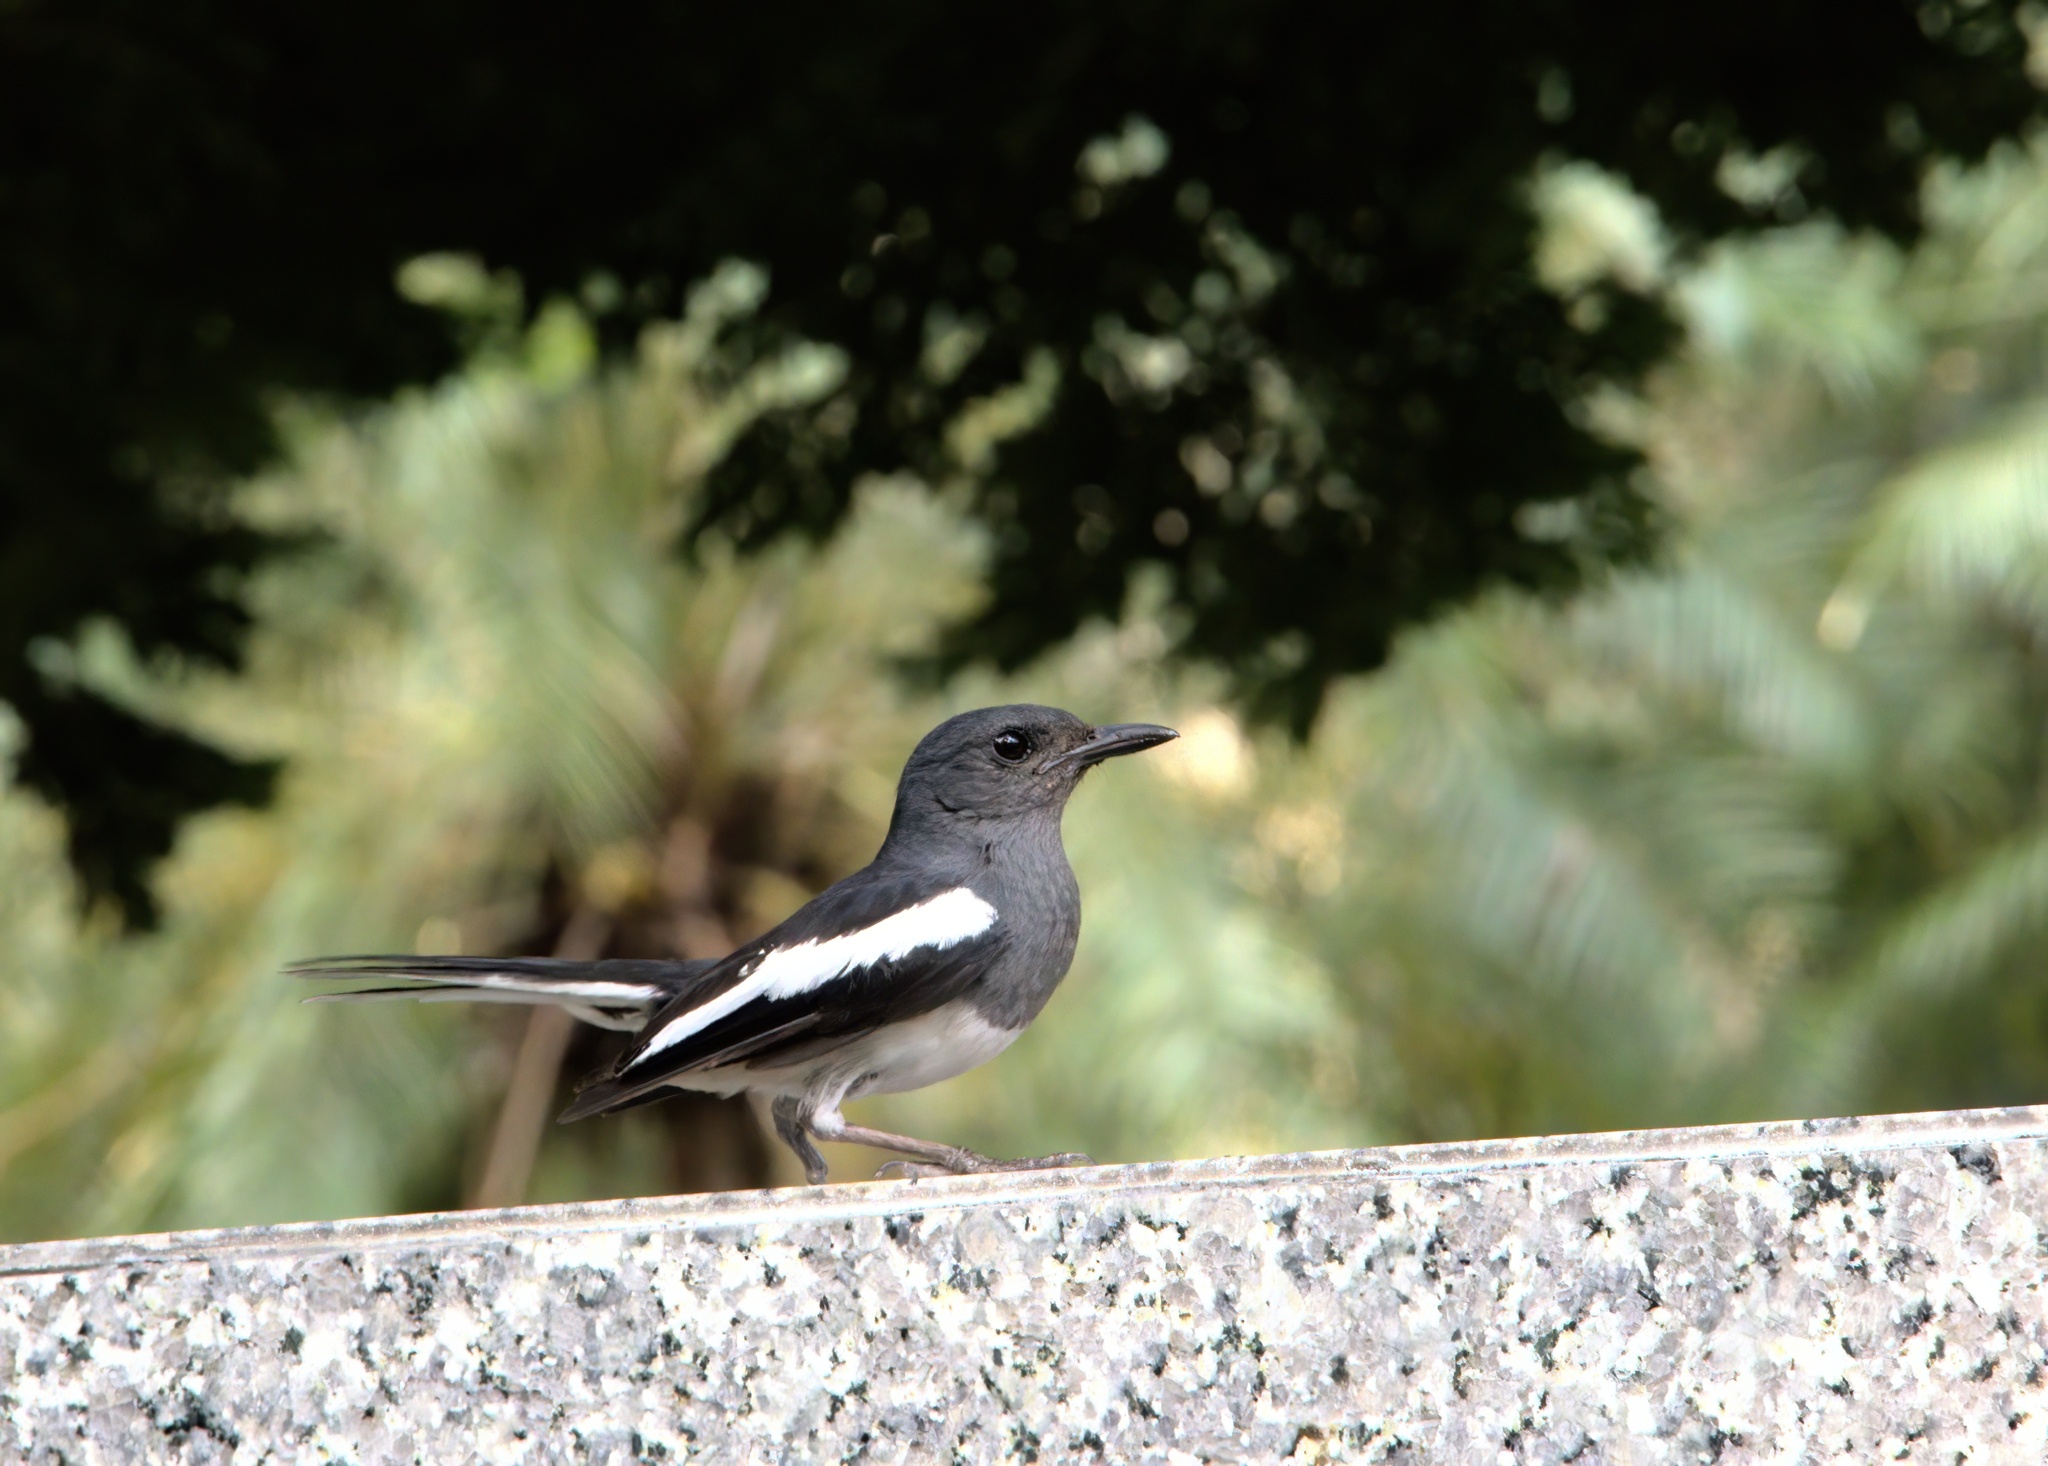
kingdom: Animalia
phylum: Chordata
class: Aves
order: Passeriformes
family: Muscicapidae
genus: Copsychus
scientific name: Copsychus saularis
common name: Oriental magpie-robin
